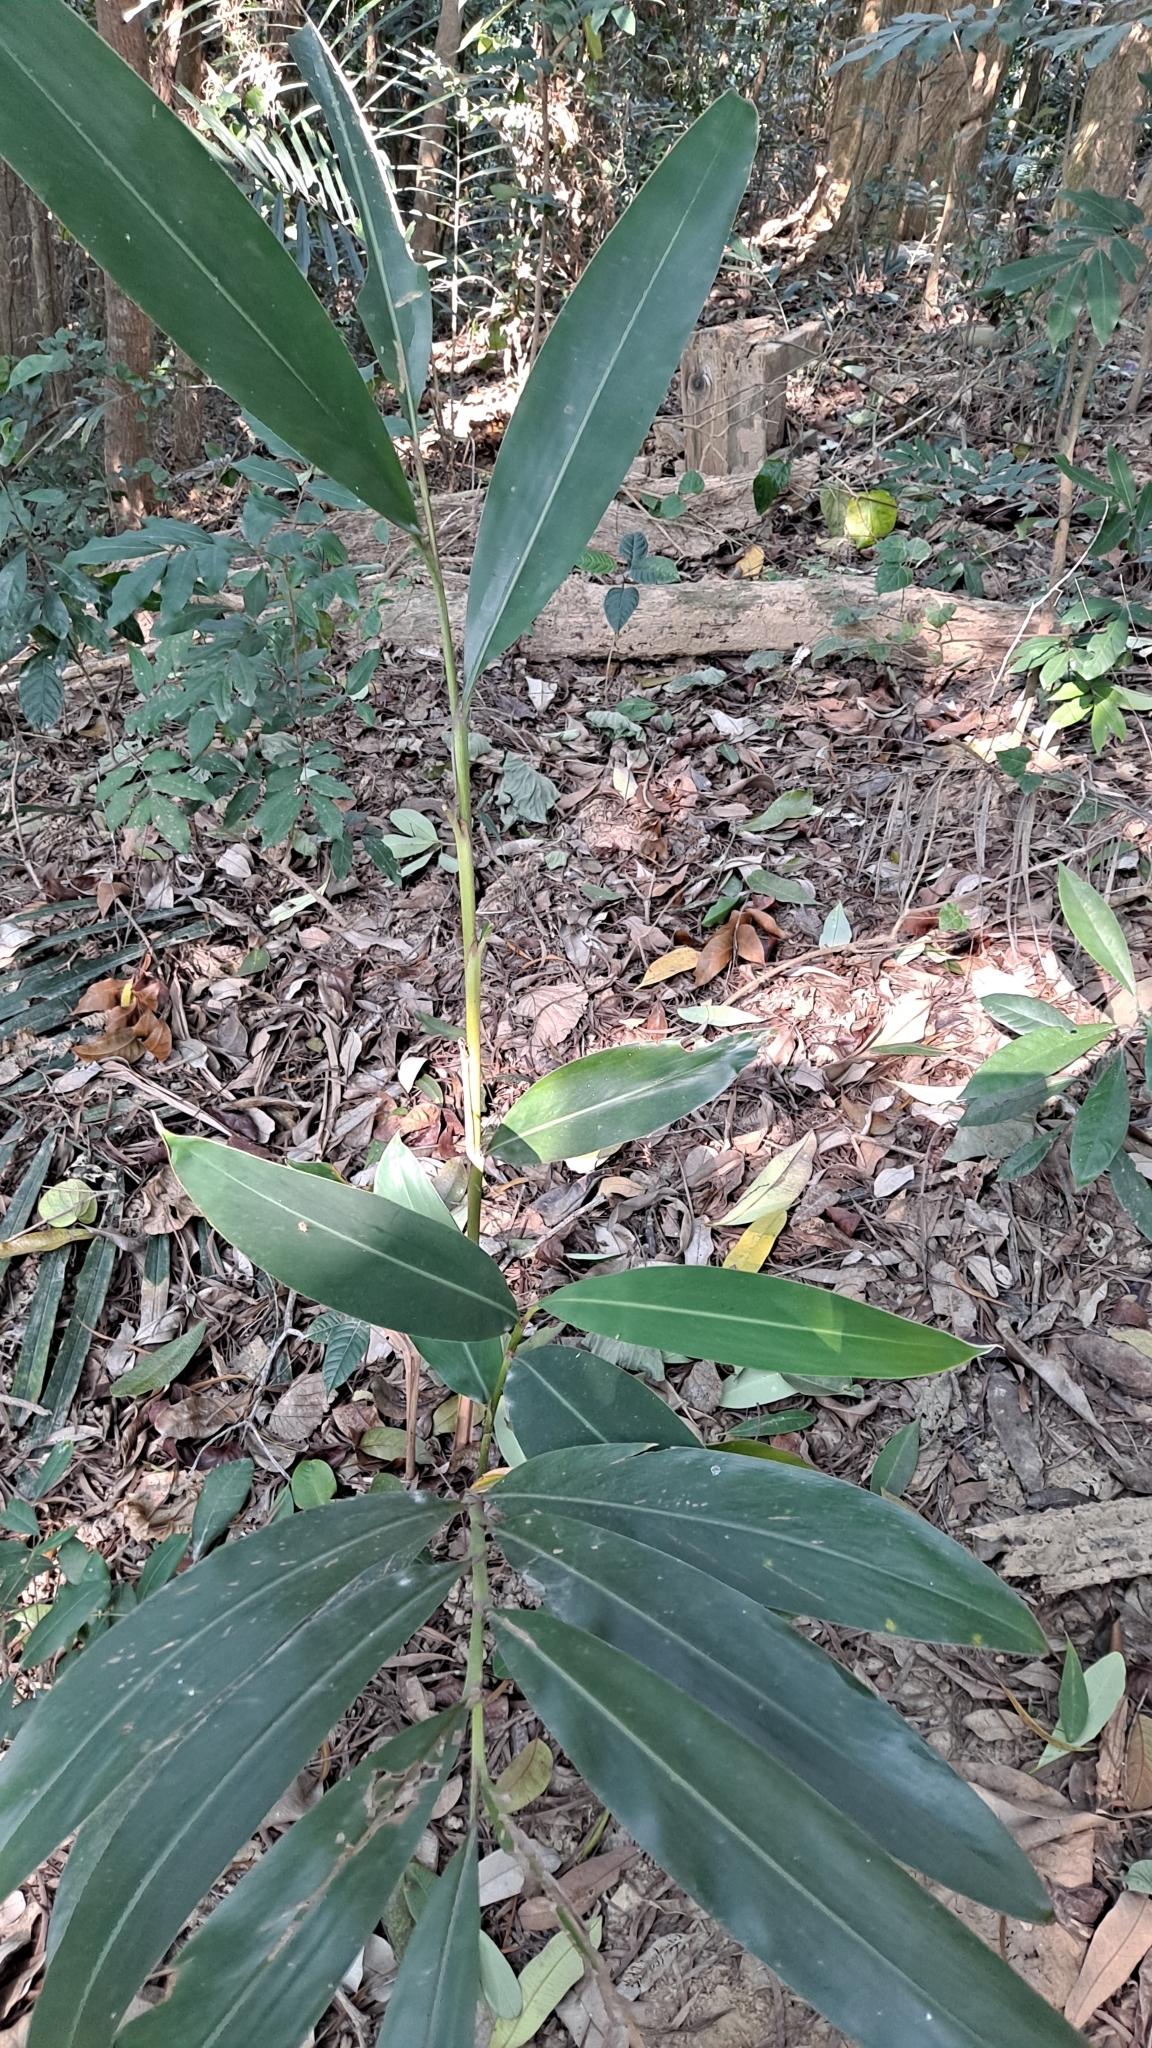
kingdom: Plantae
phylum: Tracheophyta
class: Liliopsida
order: Zingiberales
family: Zingiberaceae
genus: Alpinia
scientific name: Alpinia zerumbet
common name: Shellplant
